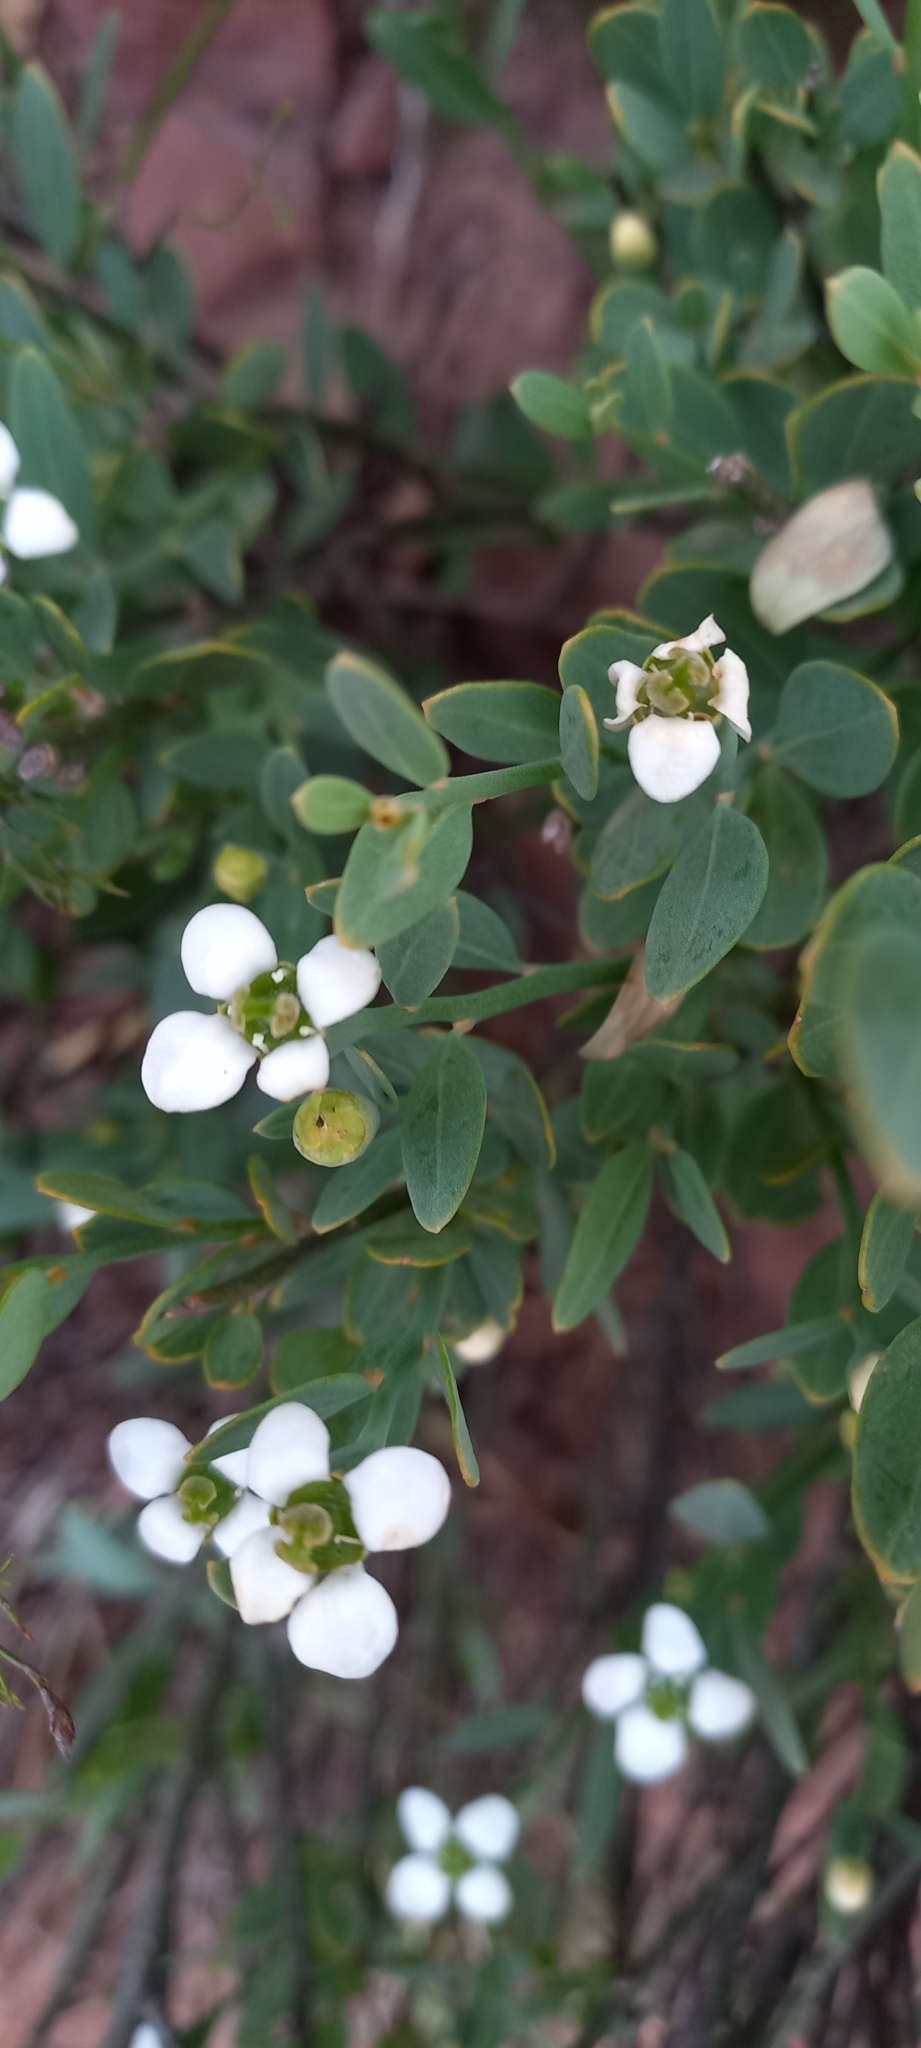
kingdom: Plantae
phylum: Tracheophyta
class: Magnoliopsida
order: Solanales
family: Montiniaceae
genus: Montinia
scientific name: Montinia caryophyllacea
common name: Wild clove-bush
